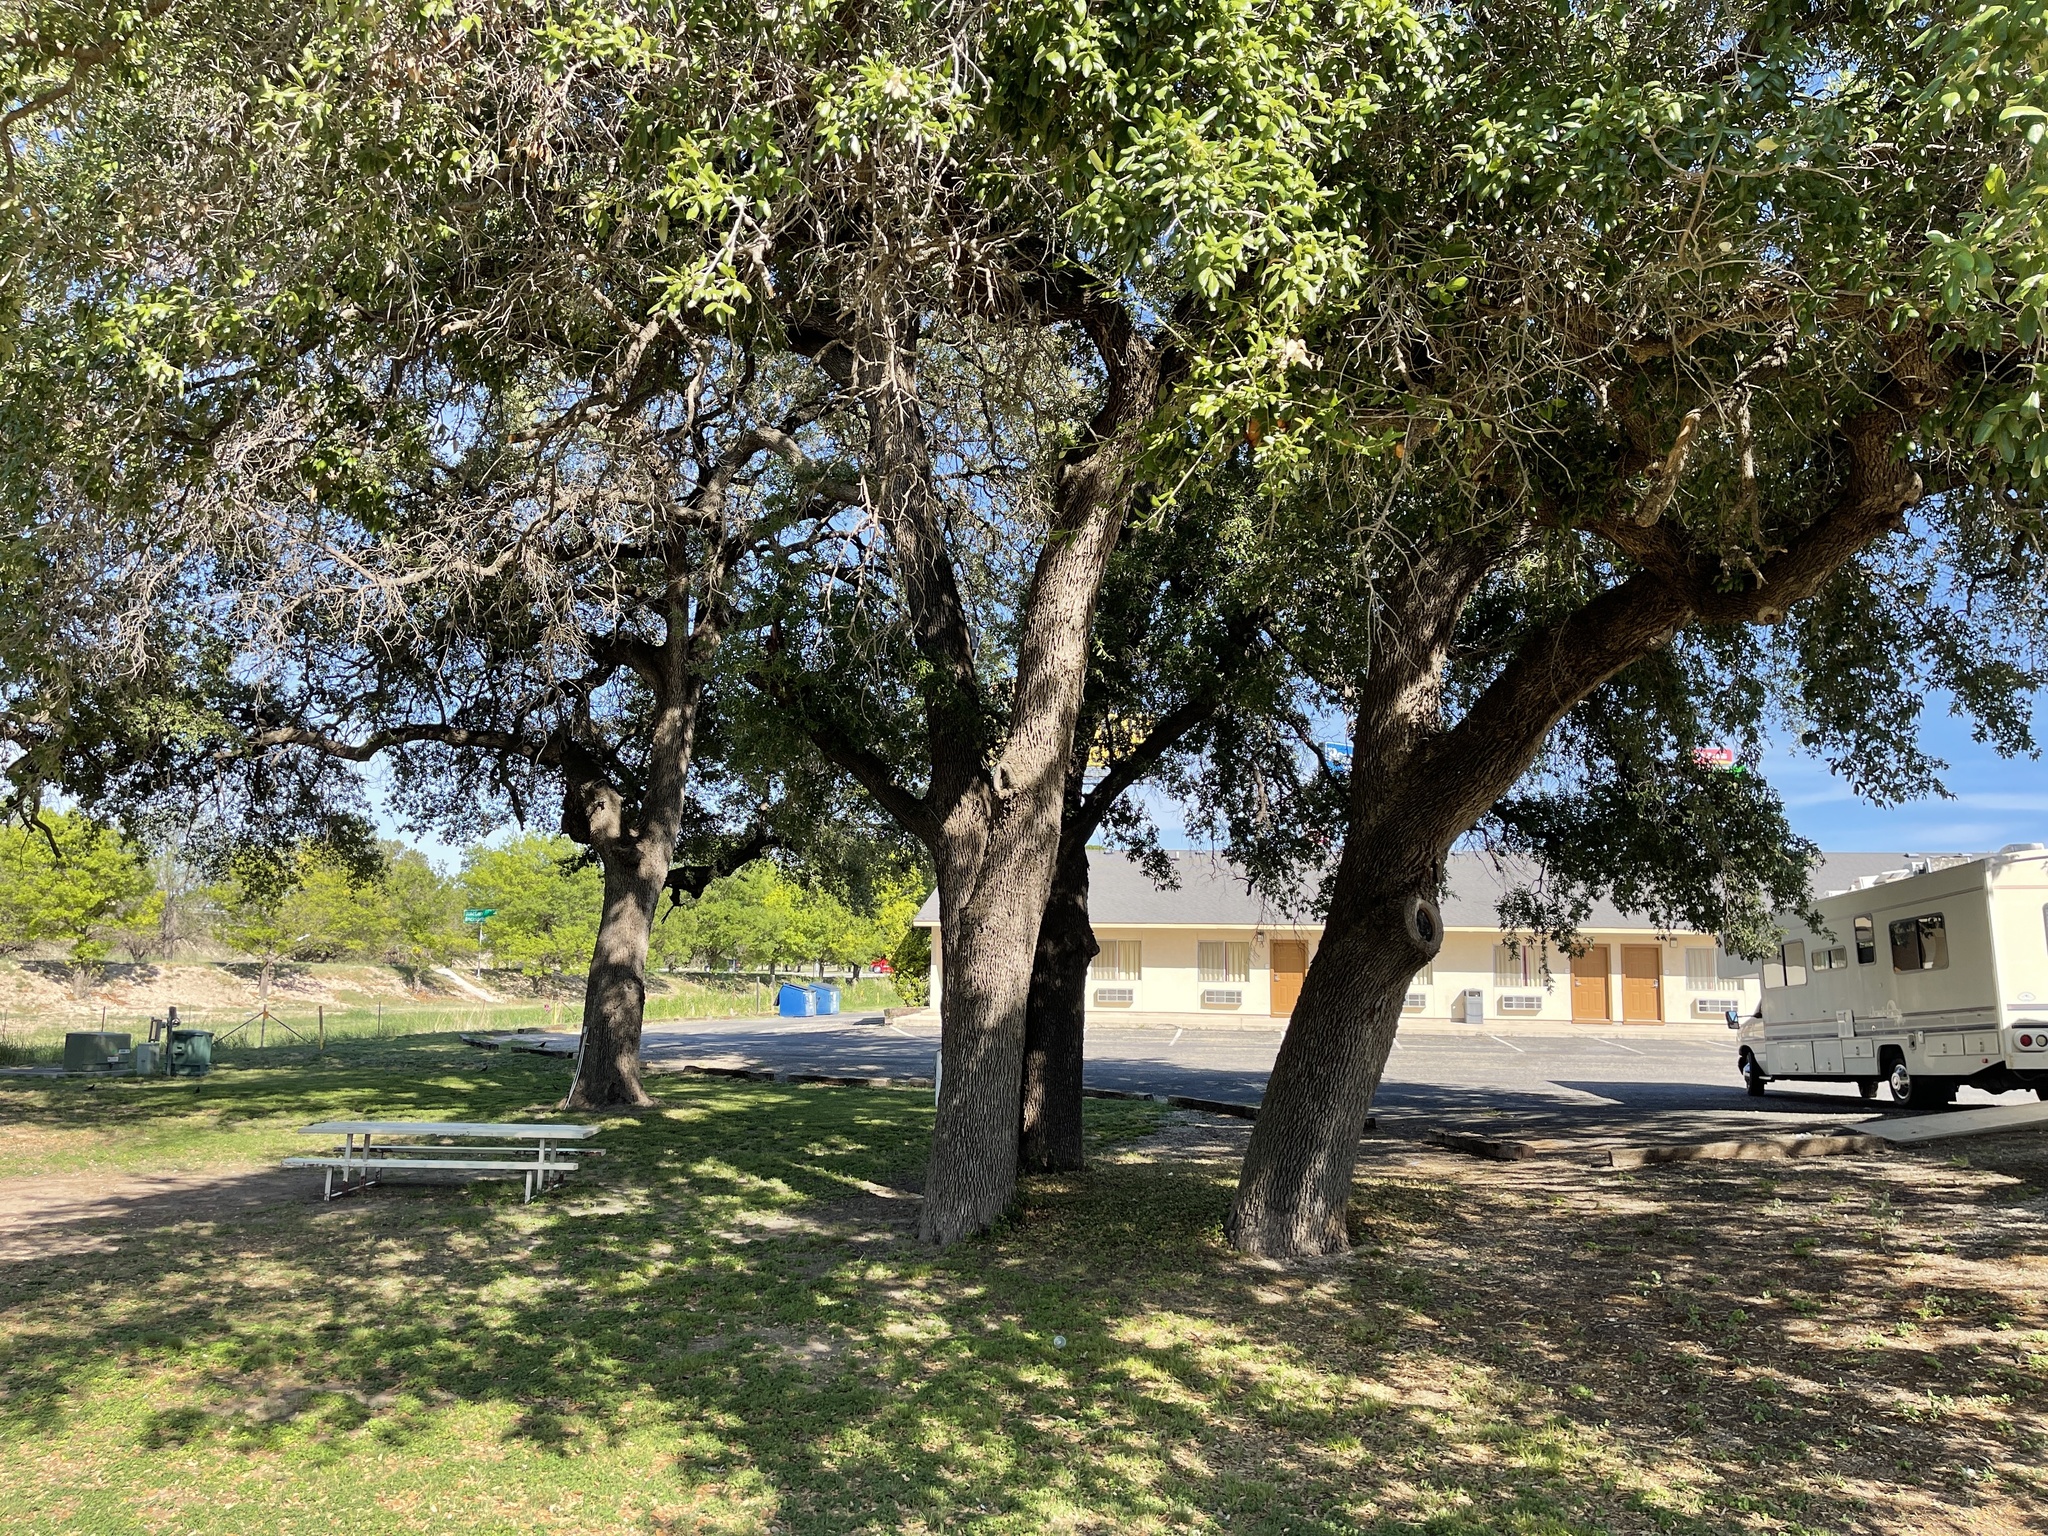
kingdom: Plantae
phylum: Tracheophyta
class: Magnoliopsida
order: Fagales
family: Fagaceae
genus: Quercus
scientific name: Quercus fusiformis
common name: Texas live oak
